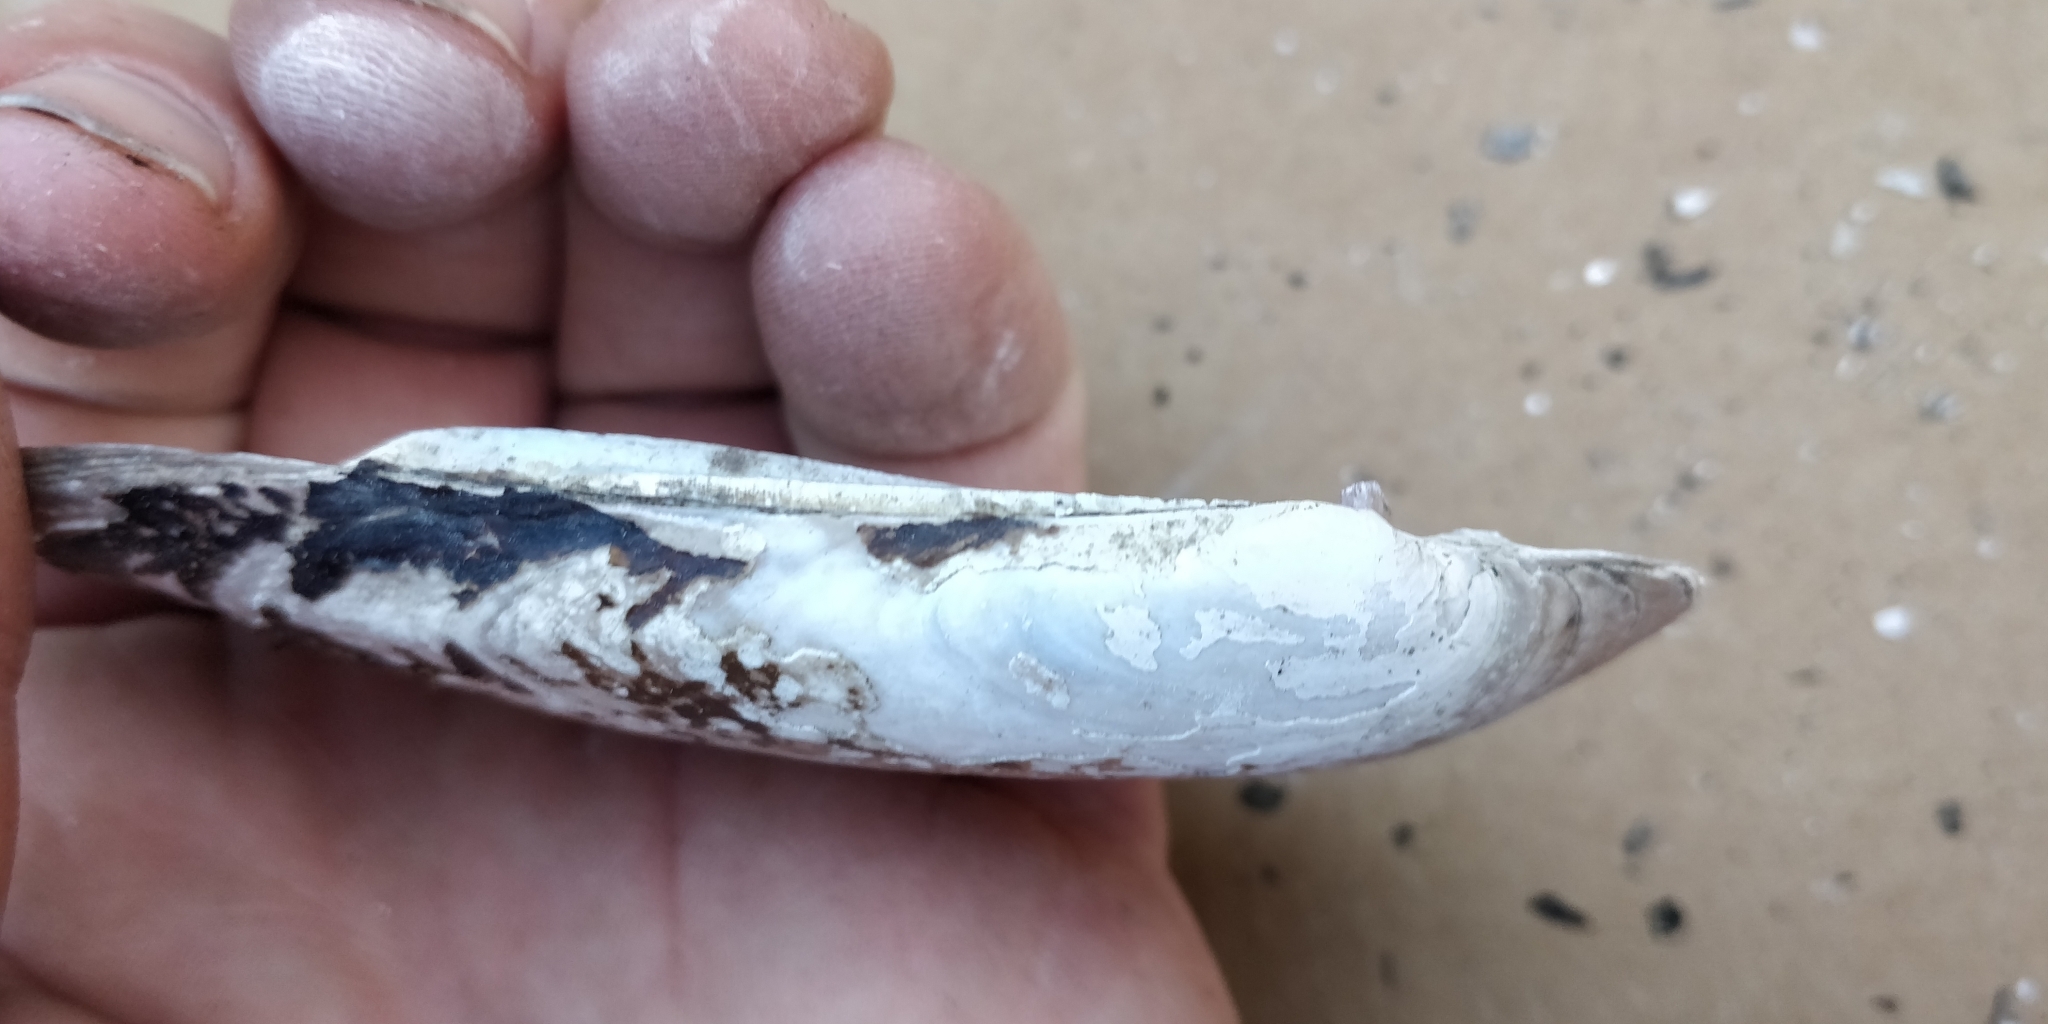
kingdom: Animalia
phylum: Mollusca
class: Bivalvia
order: Unionida
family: Unionidae
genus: Ligumia
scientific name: Ligumia recta
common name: Black sandshell
